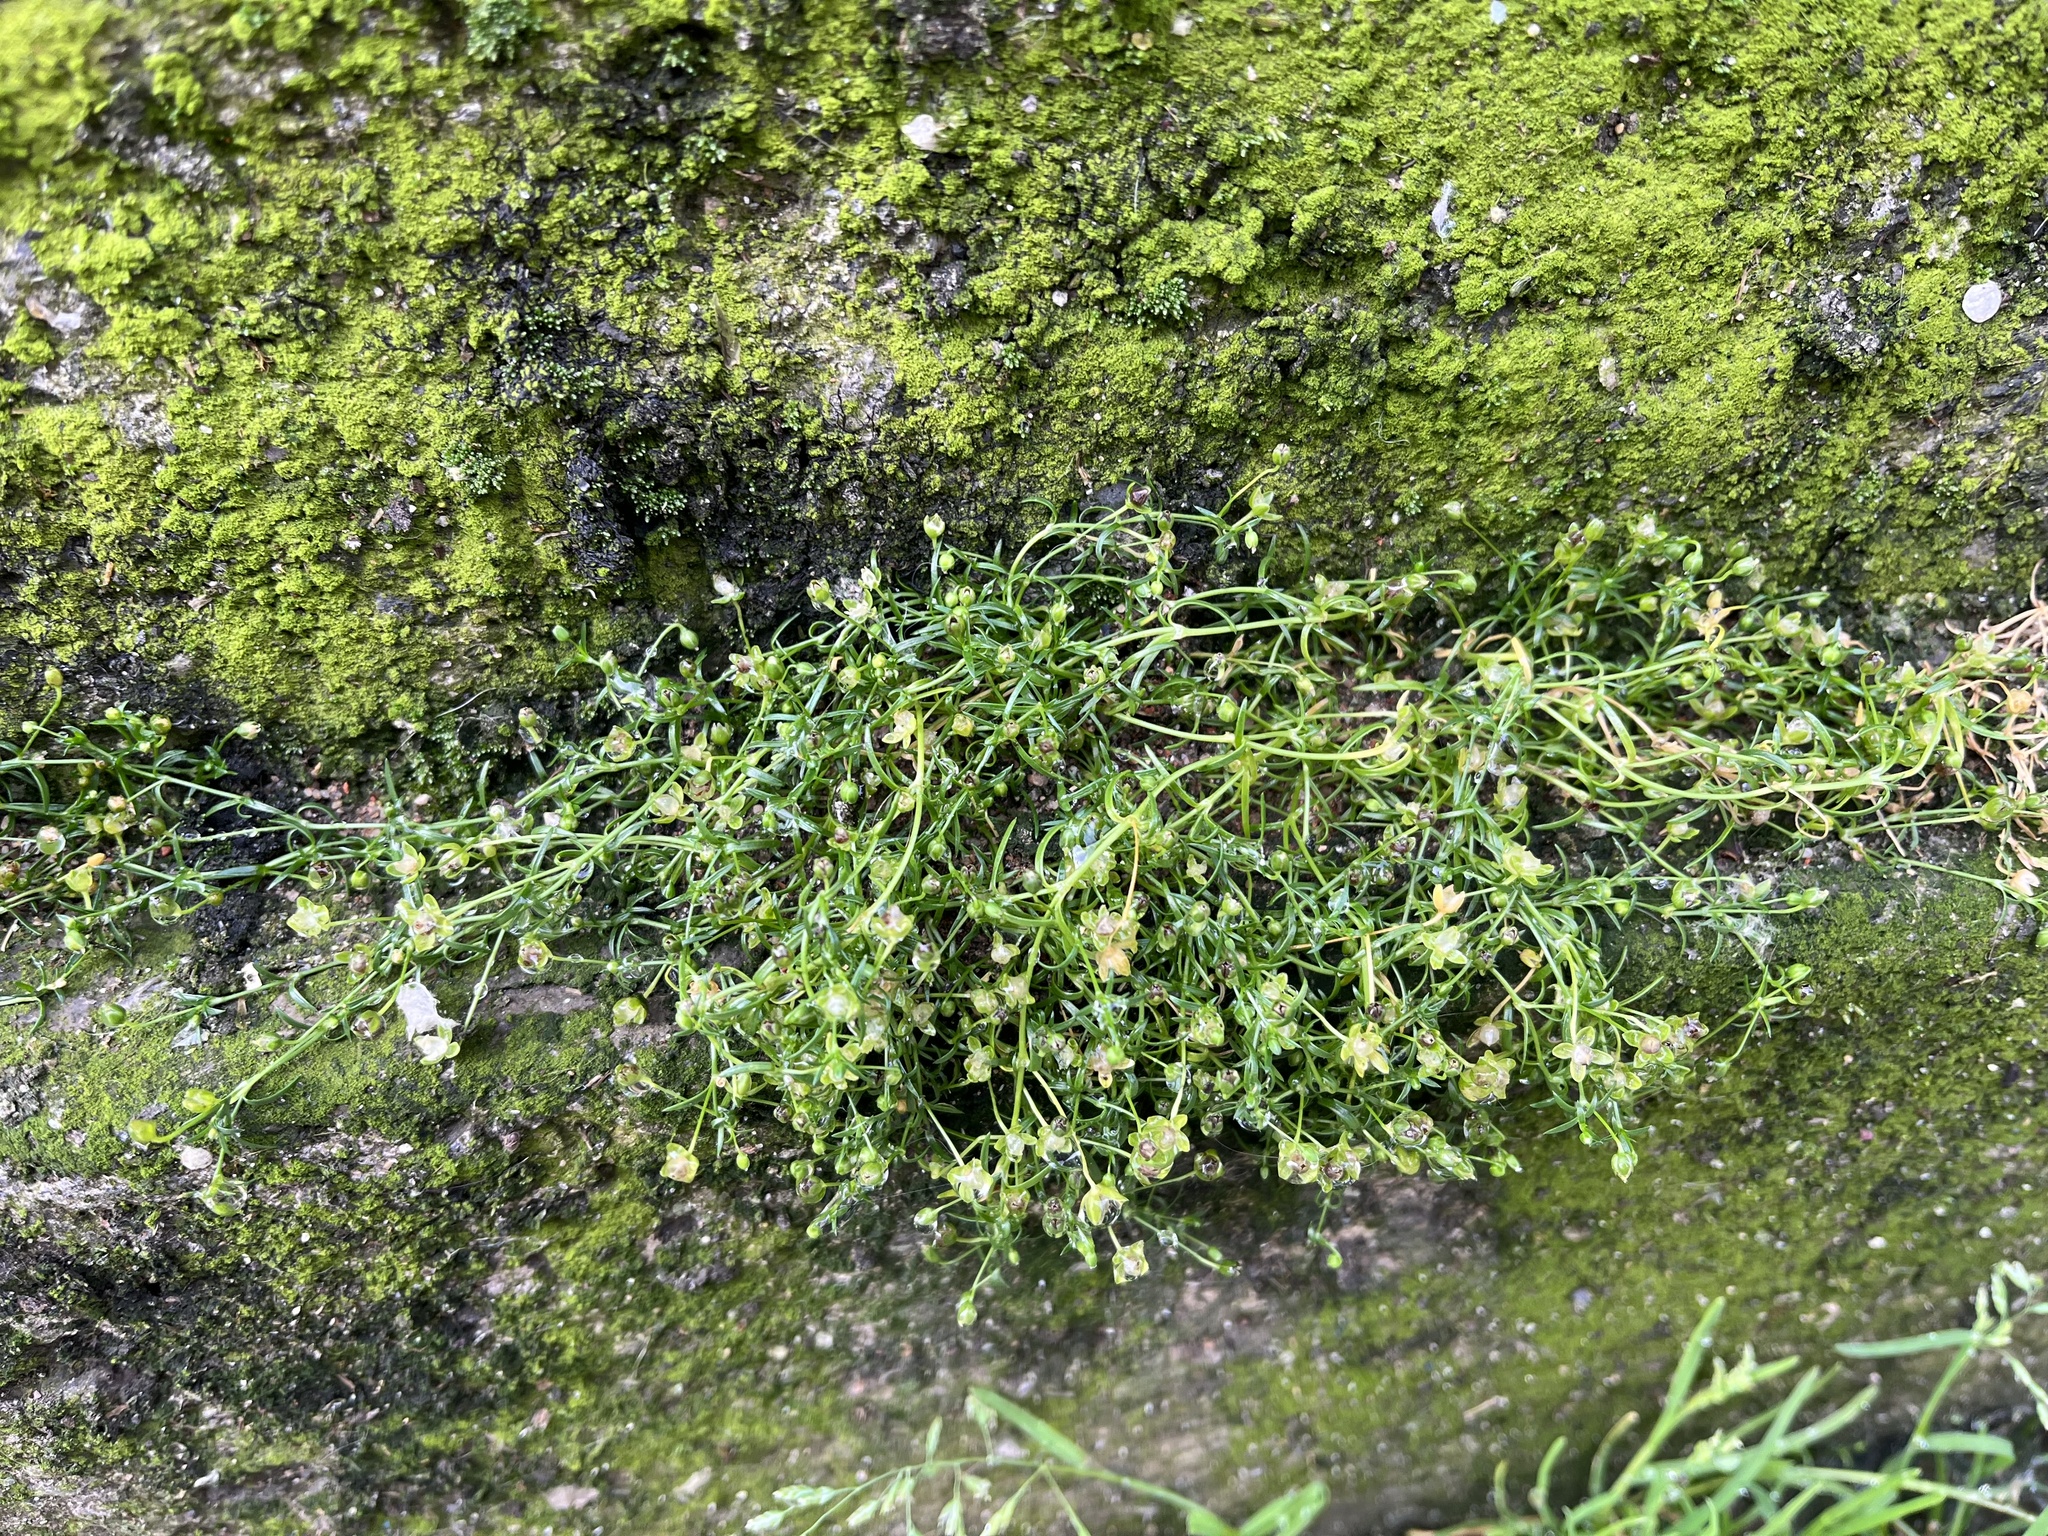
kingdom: Plantae
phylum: Tracheophyta
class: Magnoliopsida
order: Caryophyllales
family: Caryophyllaceae
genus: Sagina
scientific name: Sagina procumbens
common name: Procumbent pearlwort
